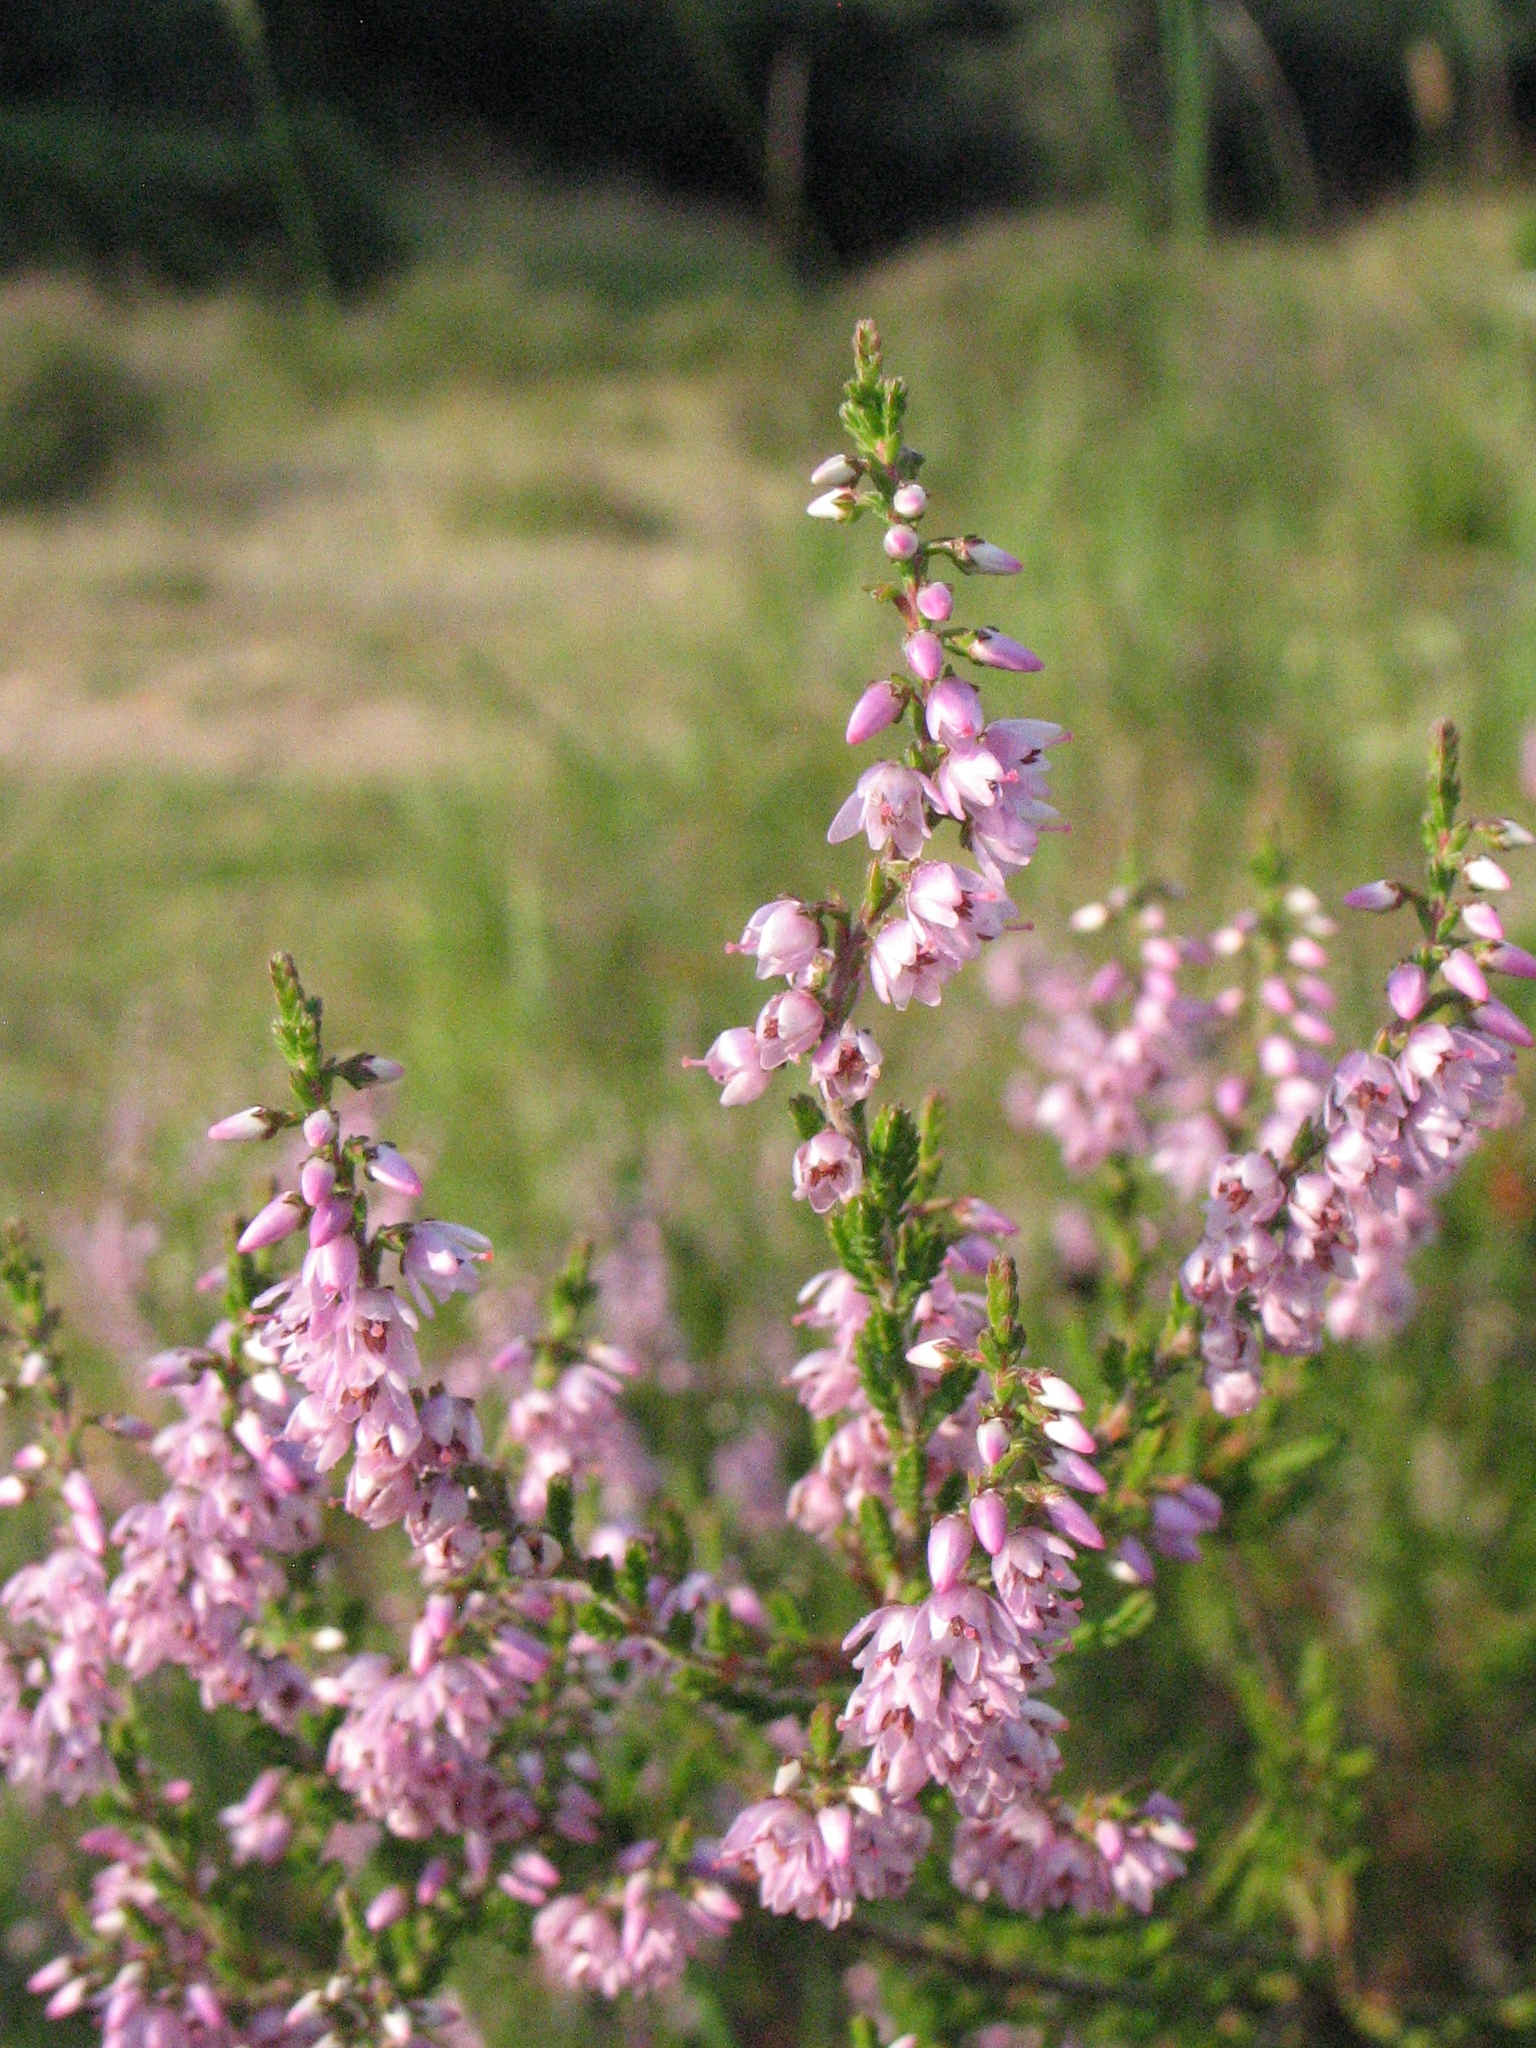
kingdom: Plantae
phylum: Tracheophyta
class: Magnoliopsida
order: Ericales
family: Ericaceae
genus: Calluna
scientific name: Calluna vulgaris
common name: Heather
